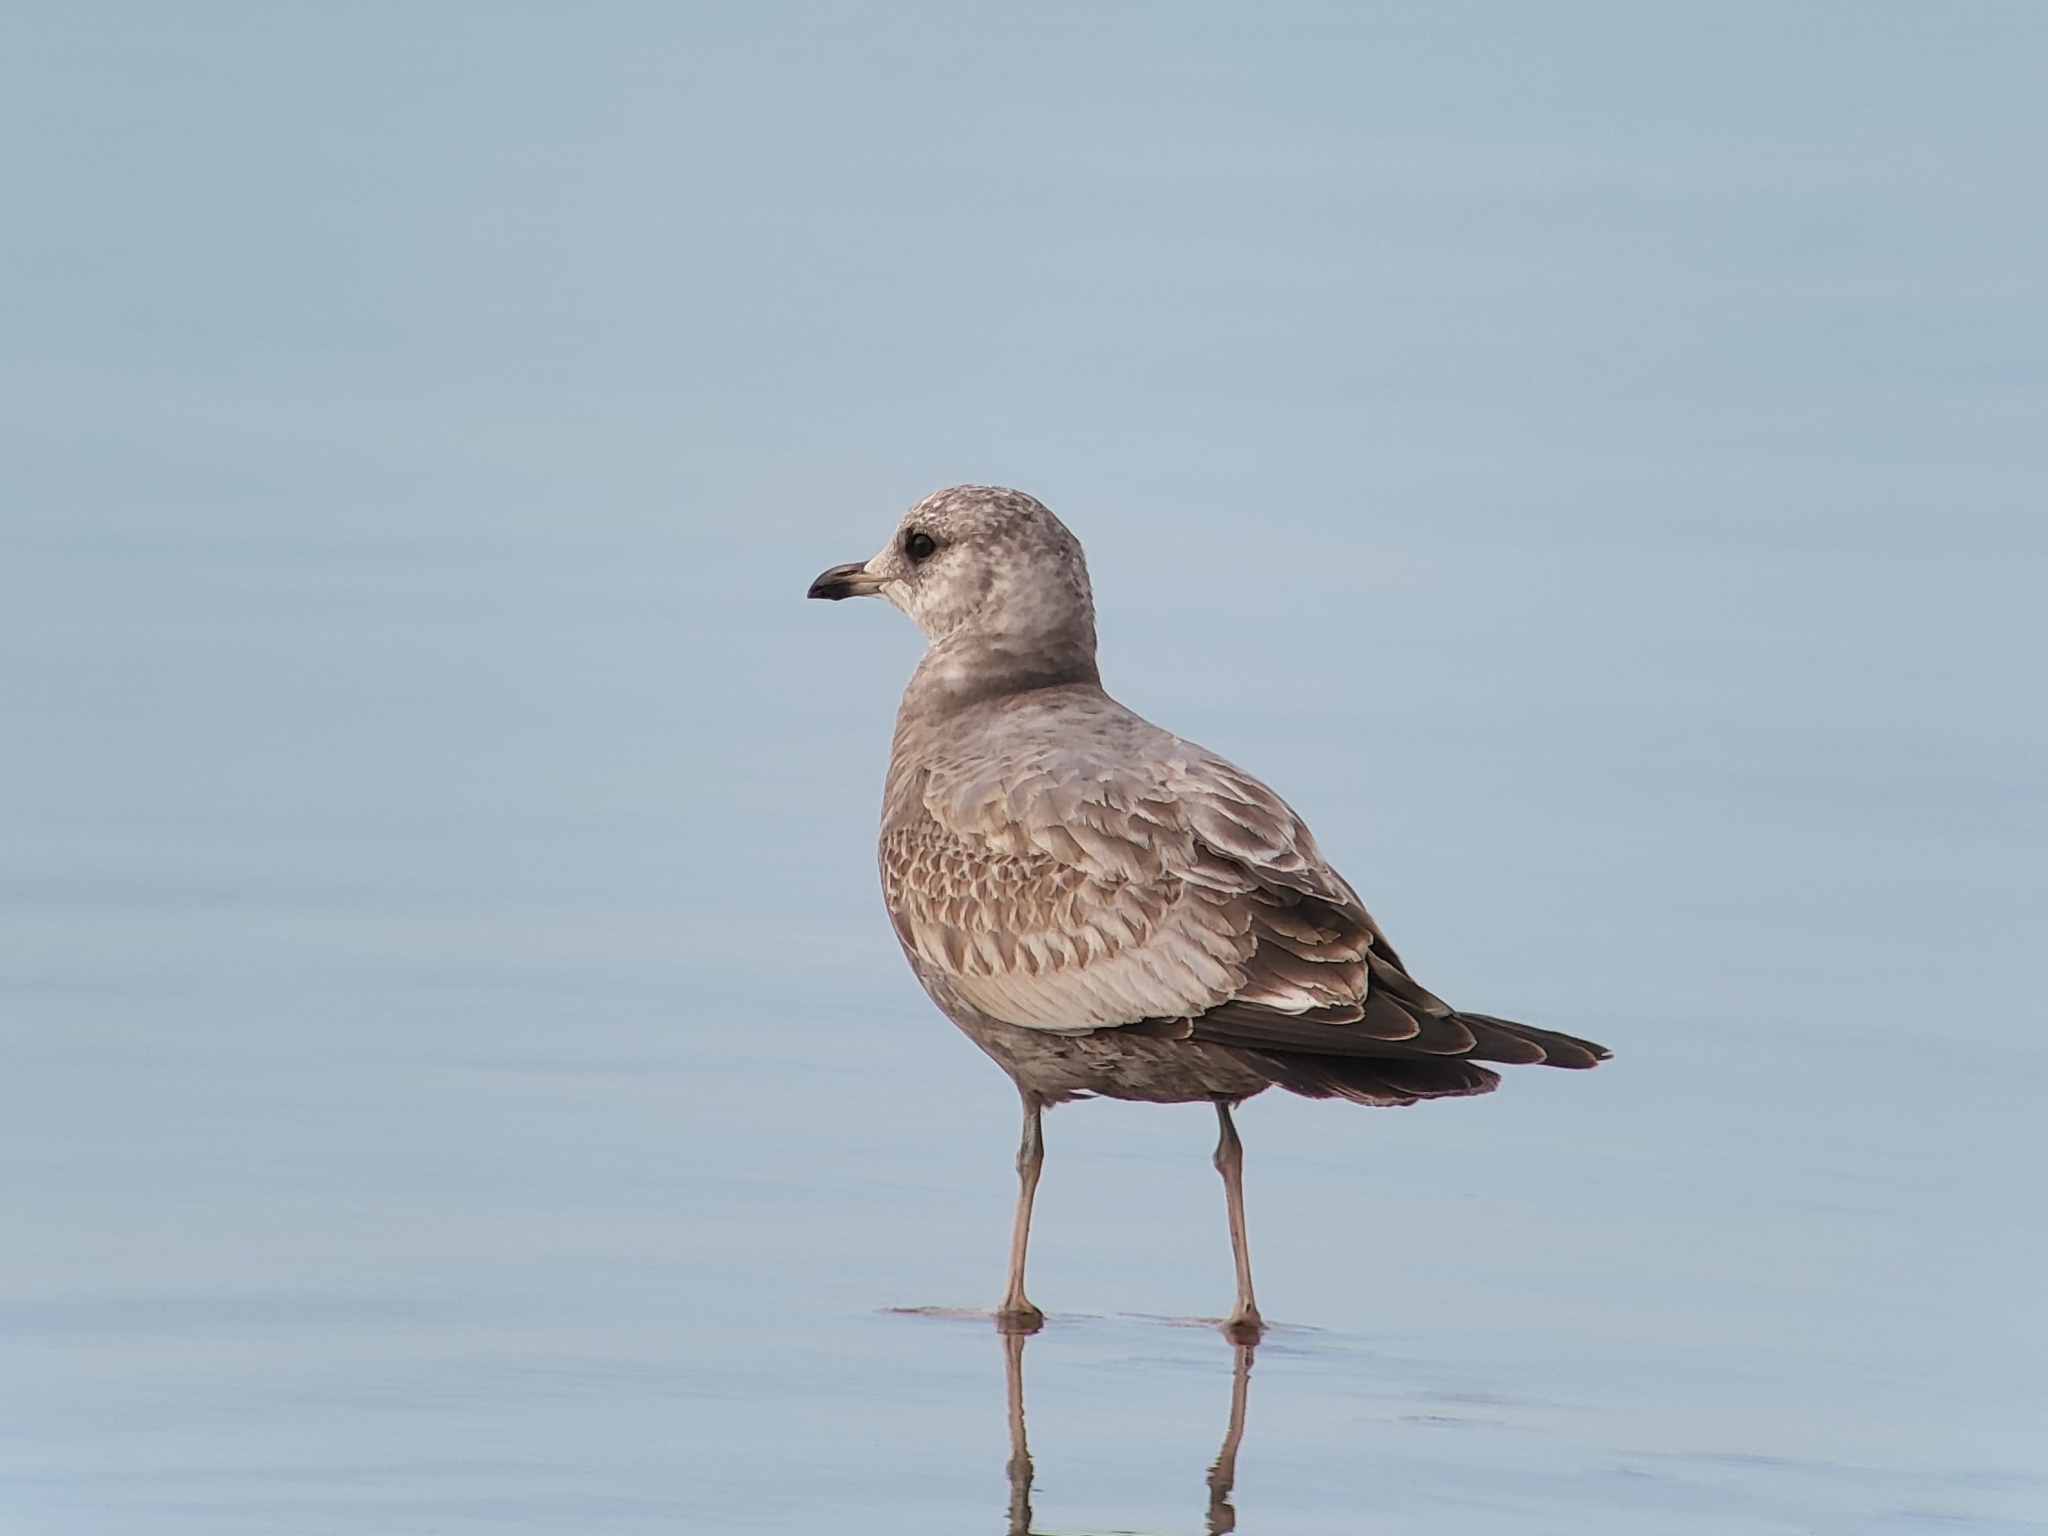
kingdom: Animalia
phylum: Chordata
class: Aves
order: Charadriiformes
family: Laridae
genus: Larus
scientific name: Larus brachyrhynchus
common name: Short-billed gull
